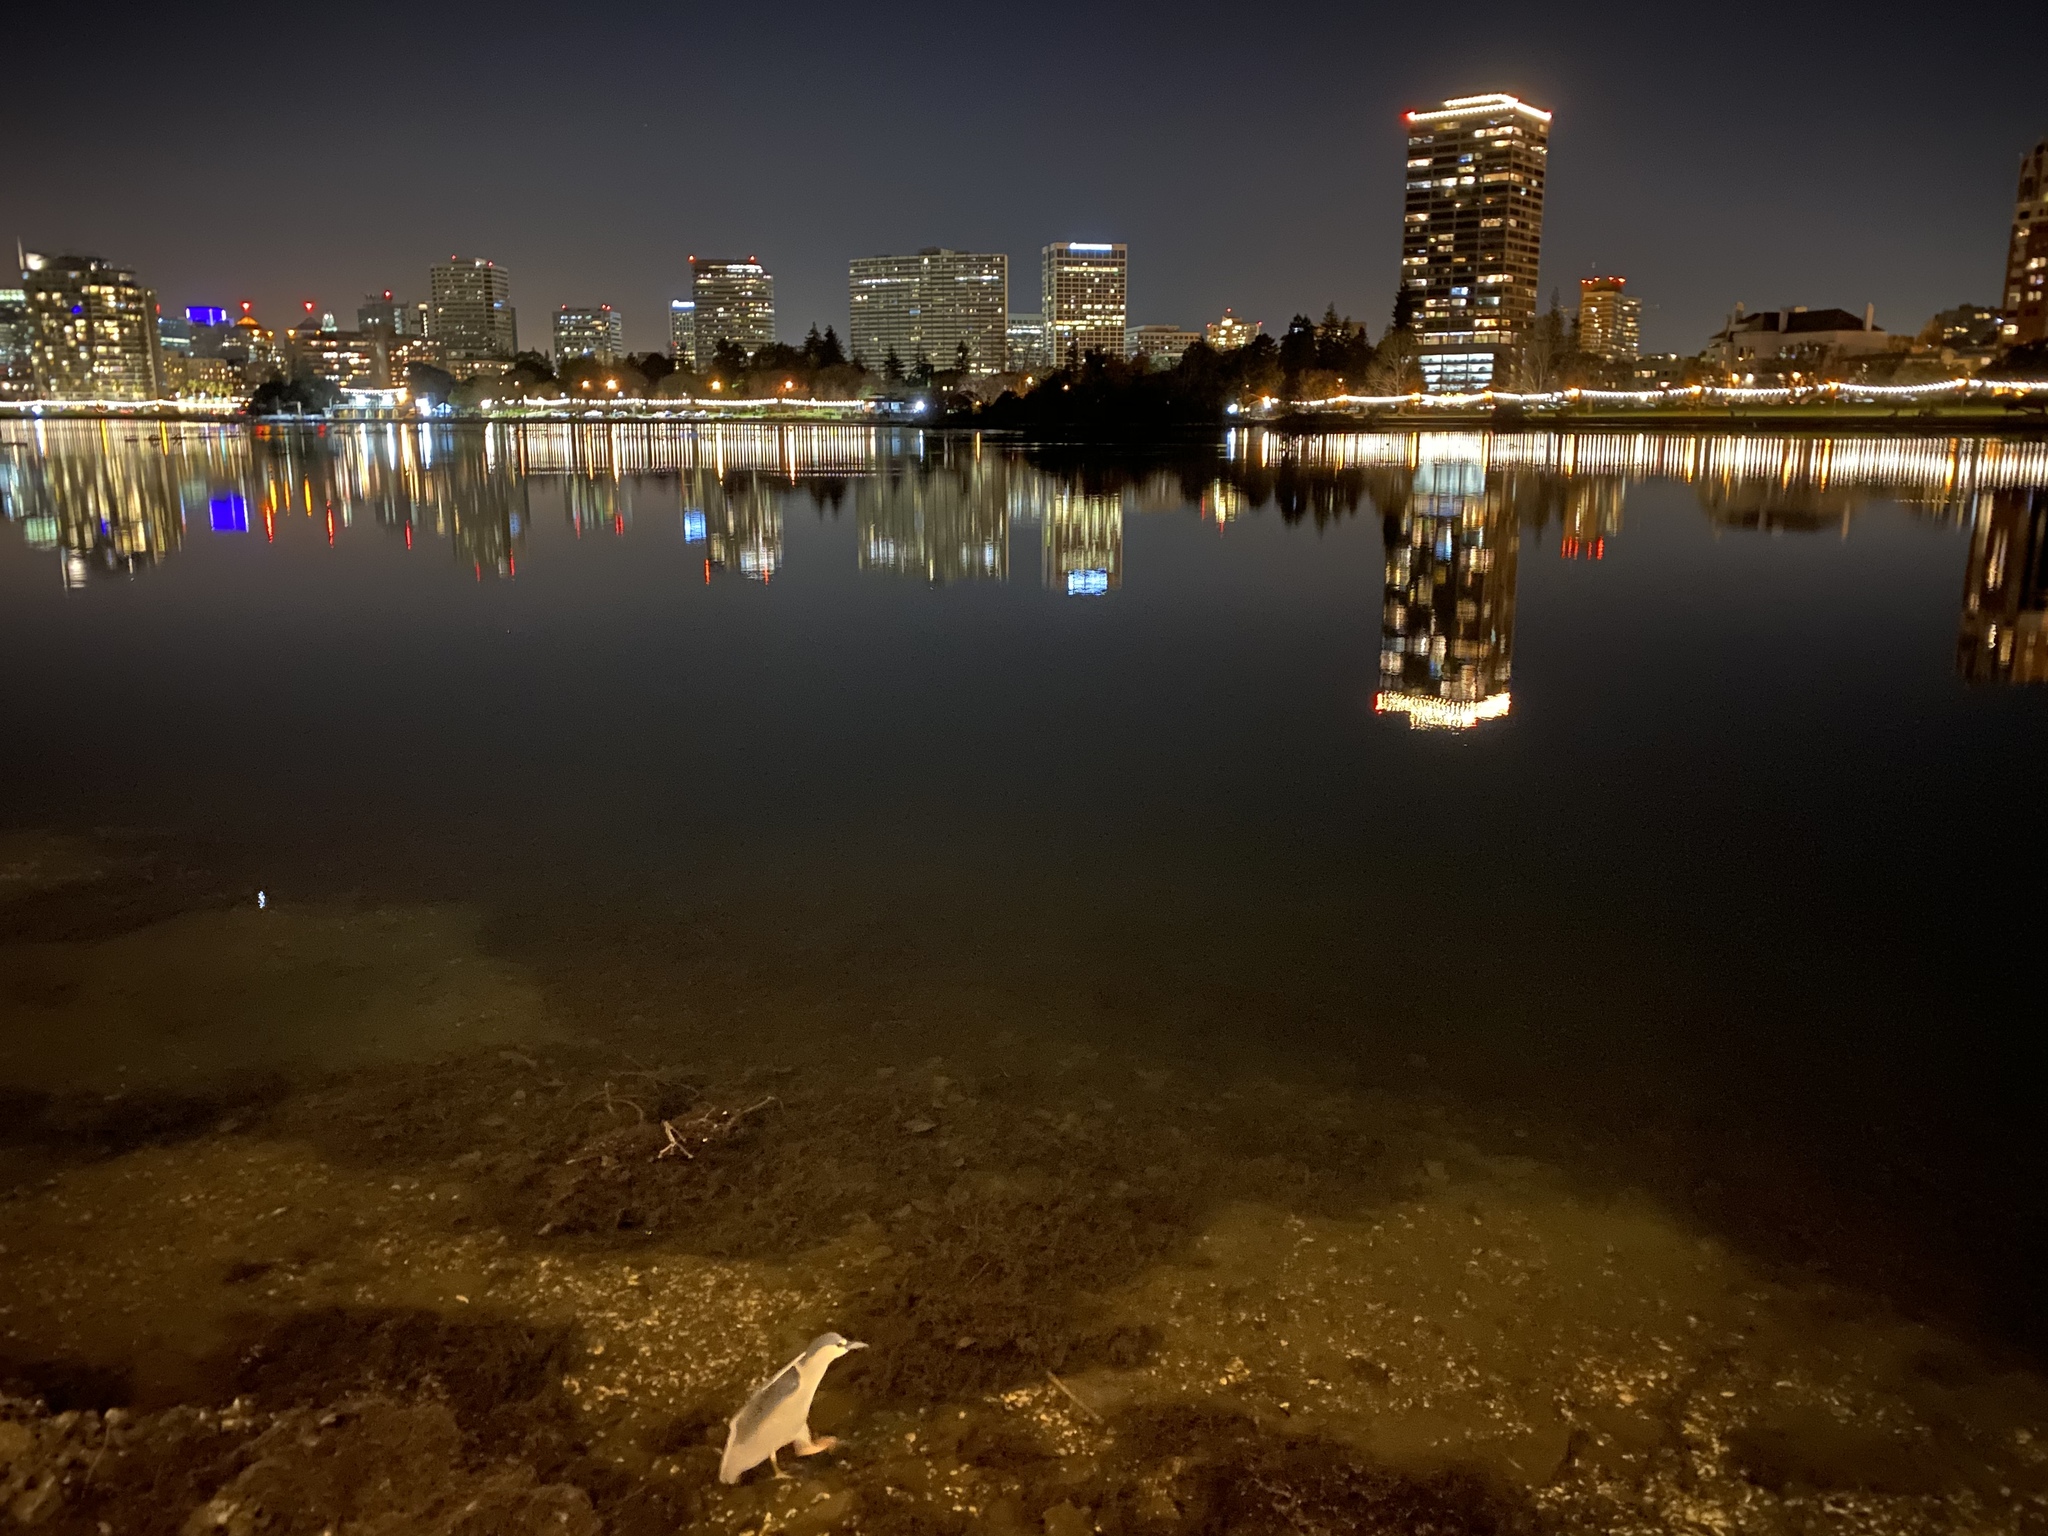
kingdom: Animalia
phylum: Chordata
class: Aves
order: Pelecaniformes
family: Ardeidae
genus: Nycticorax
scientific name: Nycticorax nycticorax
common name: Black-crowned night heron
